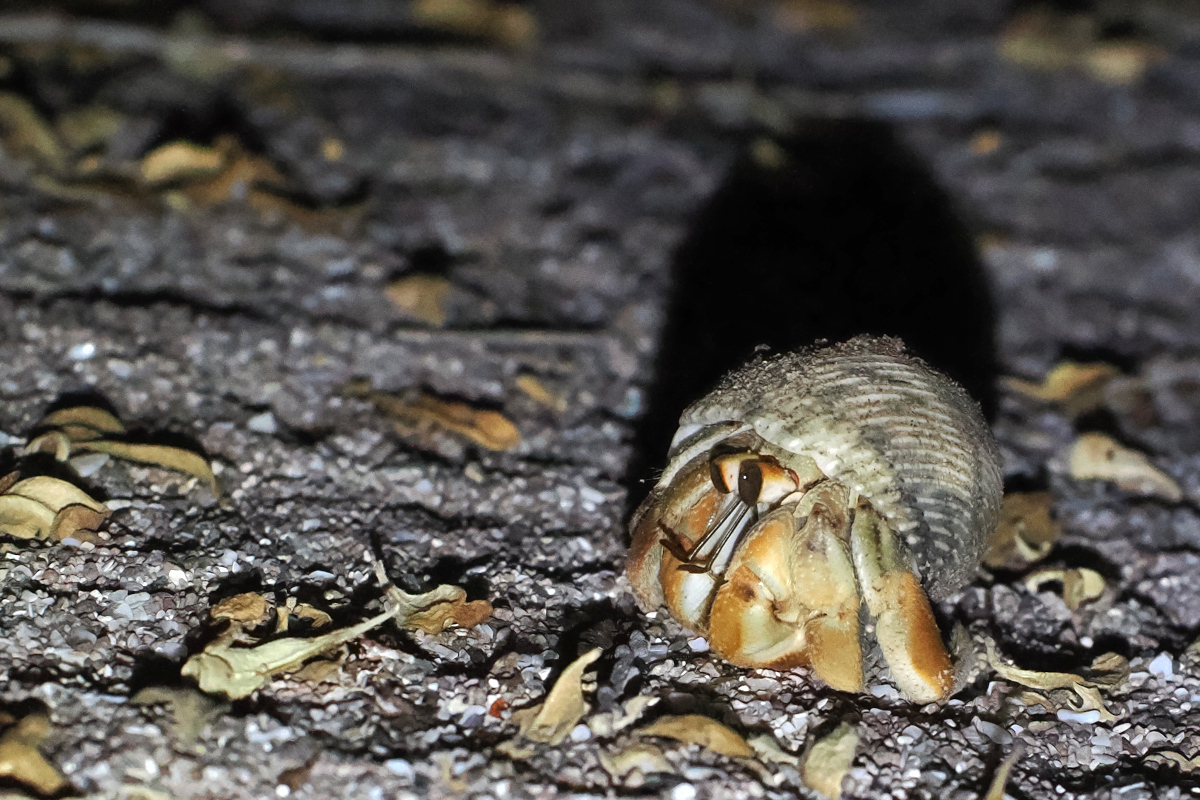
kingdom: Animalia
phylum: Arthropoda
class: Malacostraca
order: Decapoda
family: Coenobitidae
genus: Coenobita
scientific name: Coenobita compressus
